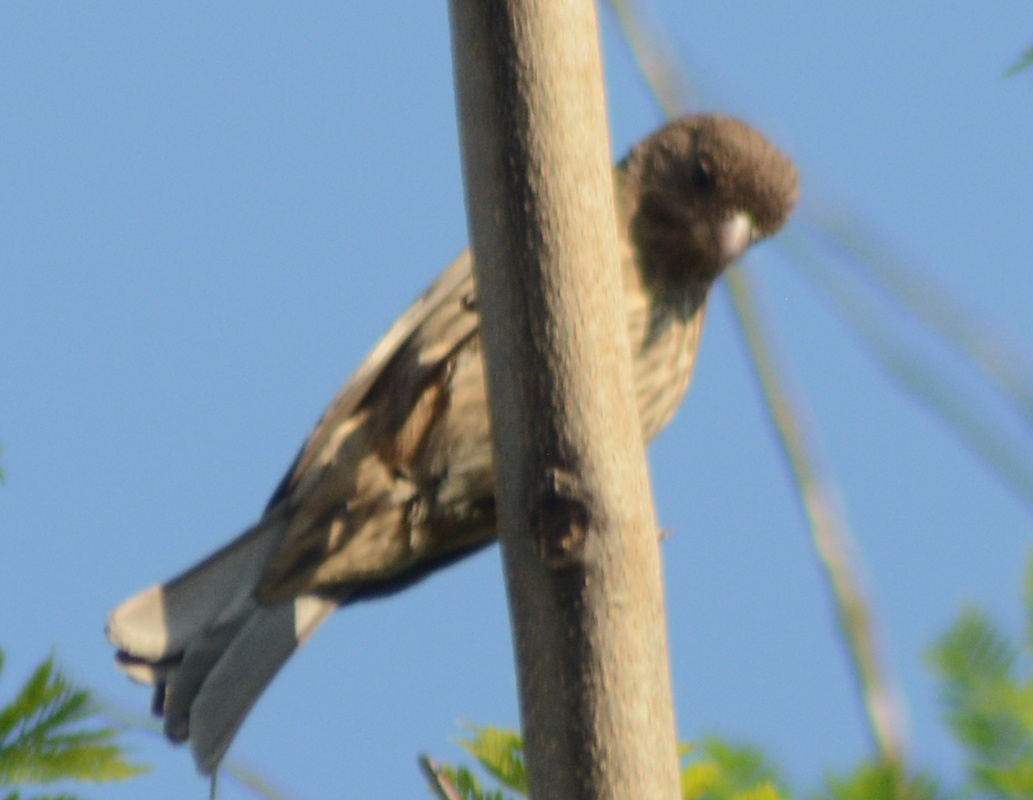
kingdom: Animalia
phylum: Chordata
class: Aves
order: Passeriformes
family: Fringillidae
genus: Haemorhous
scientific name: Haemorhous mexicanus
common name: House finch
